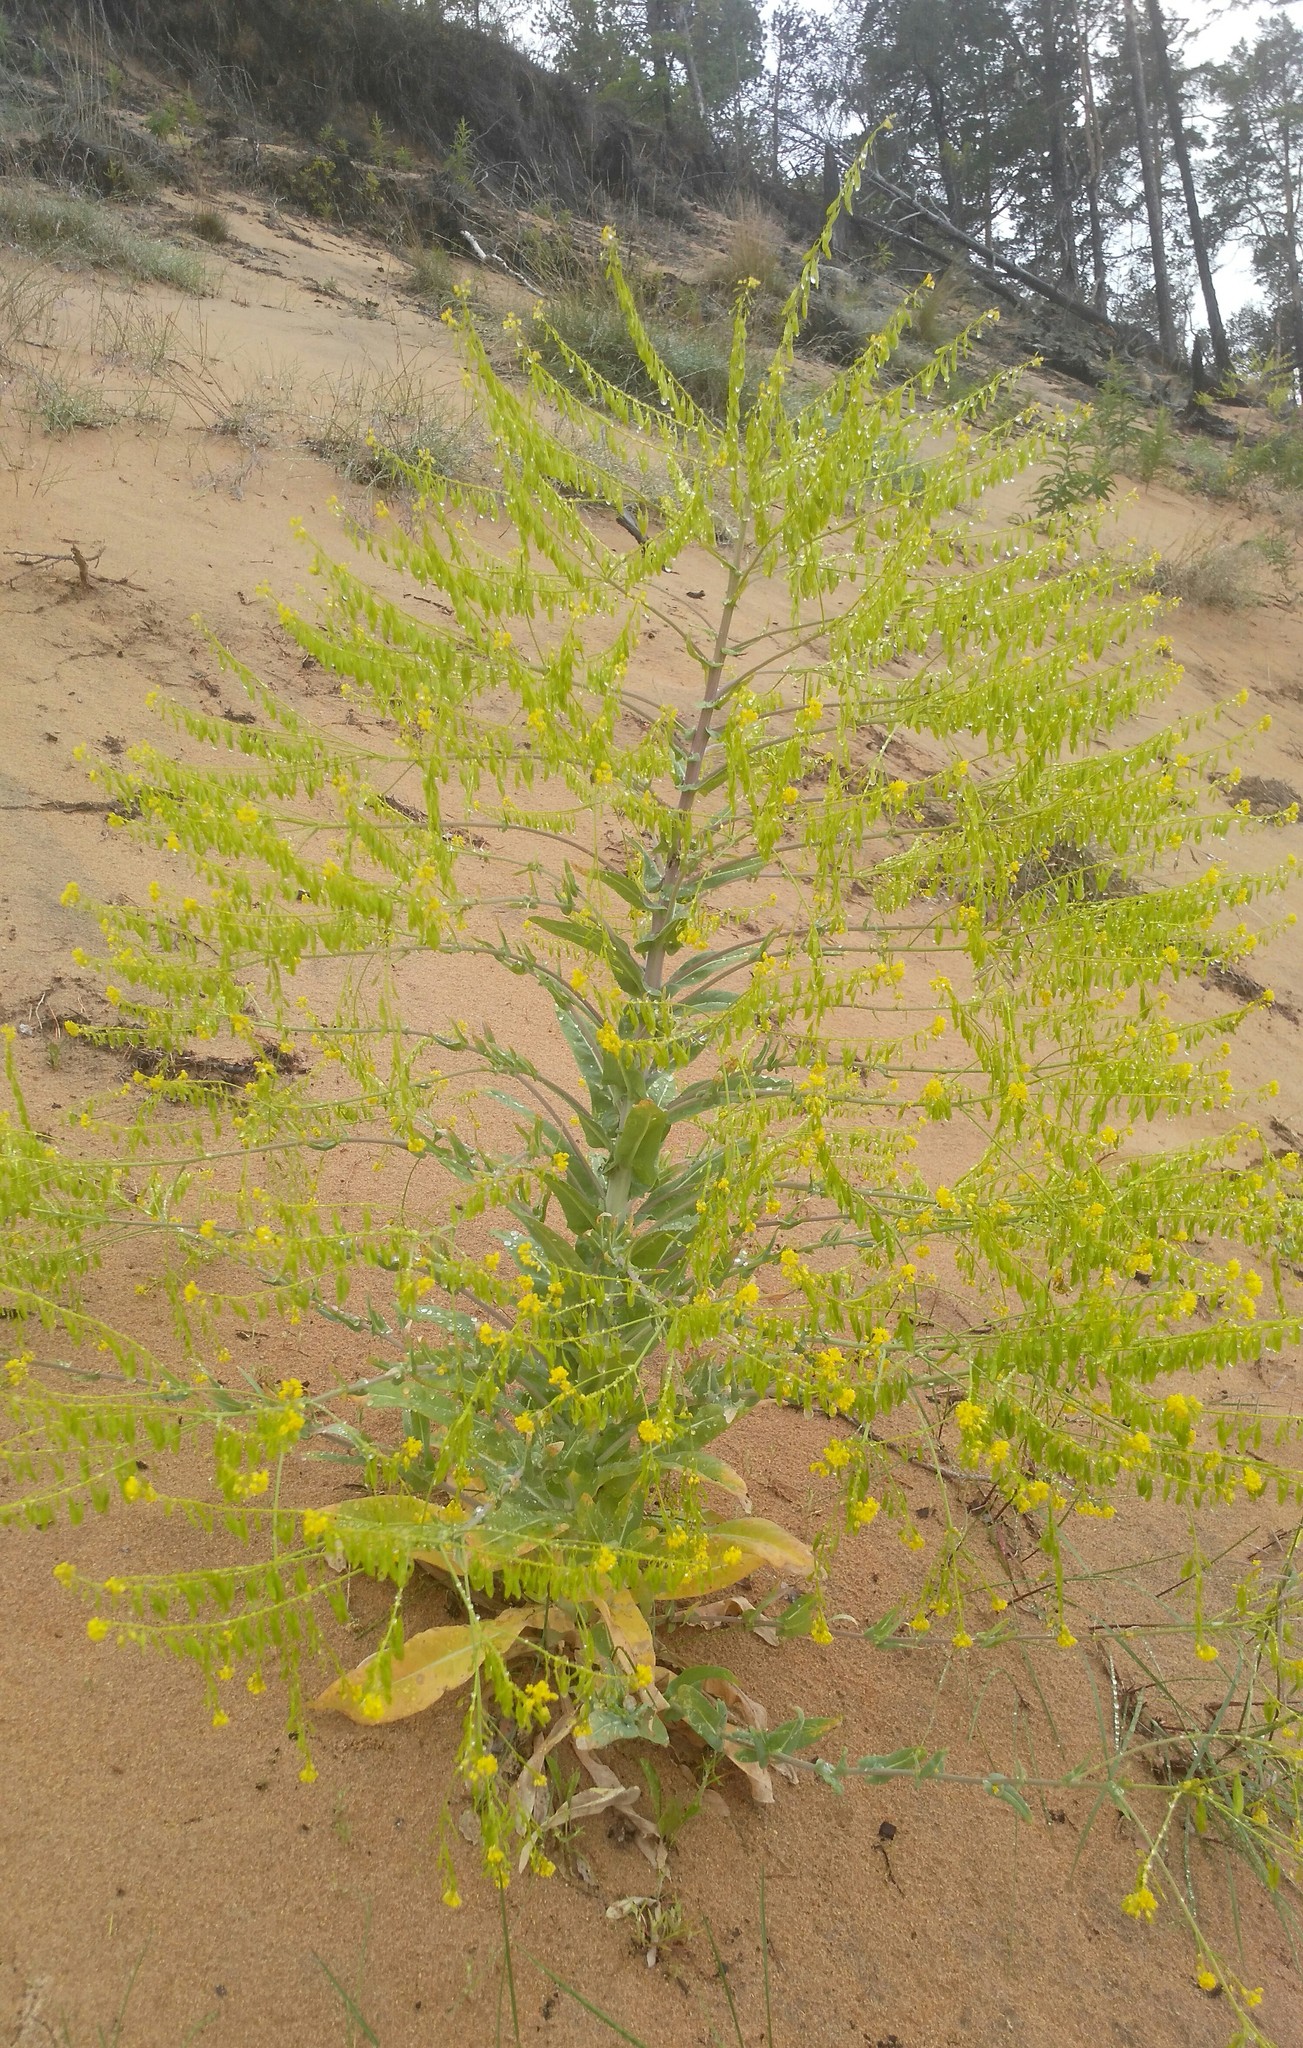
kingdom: Plantae
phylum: Tracheophyta
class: Magnoliopsida
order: Brassicales
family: Brassicaceae
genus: Isatis
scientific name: Isatis tinctoria
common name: Woad
